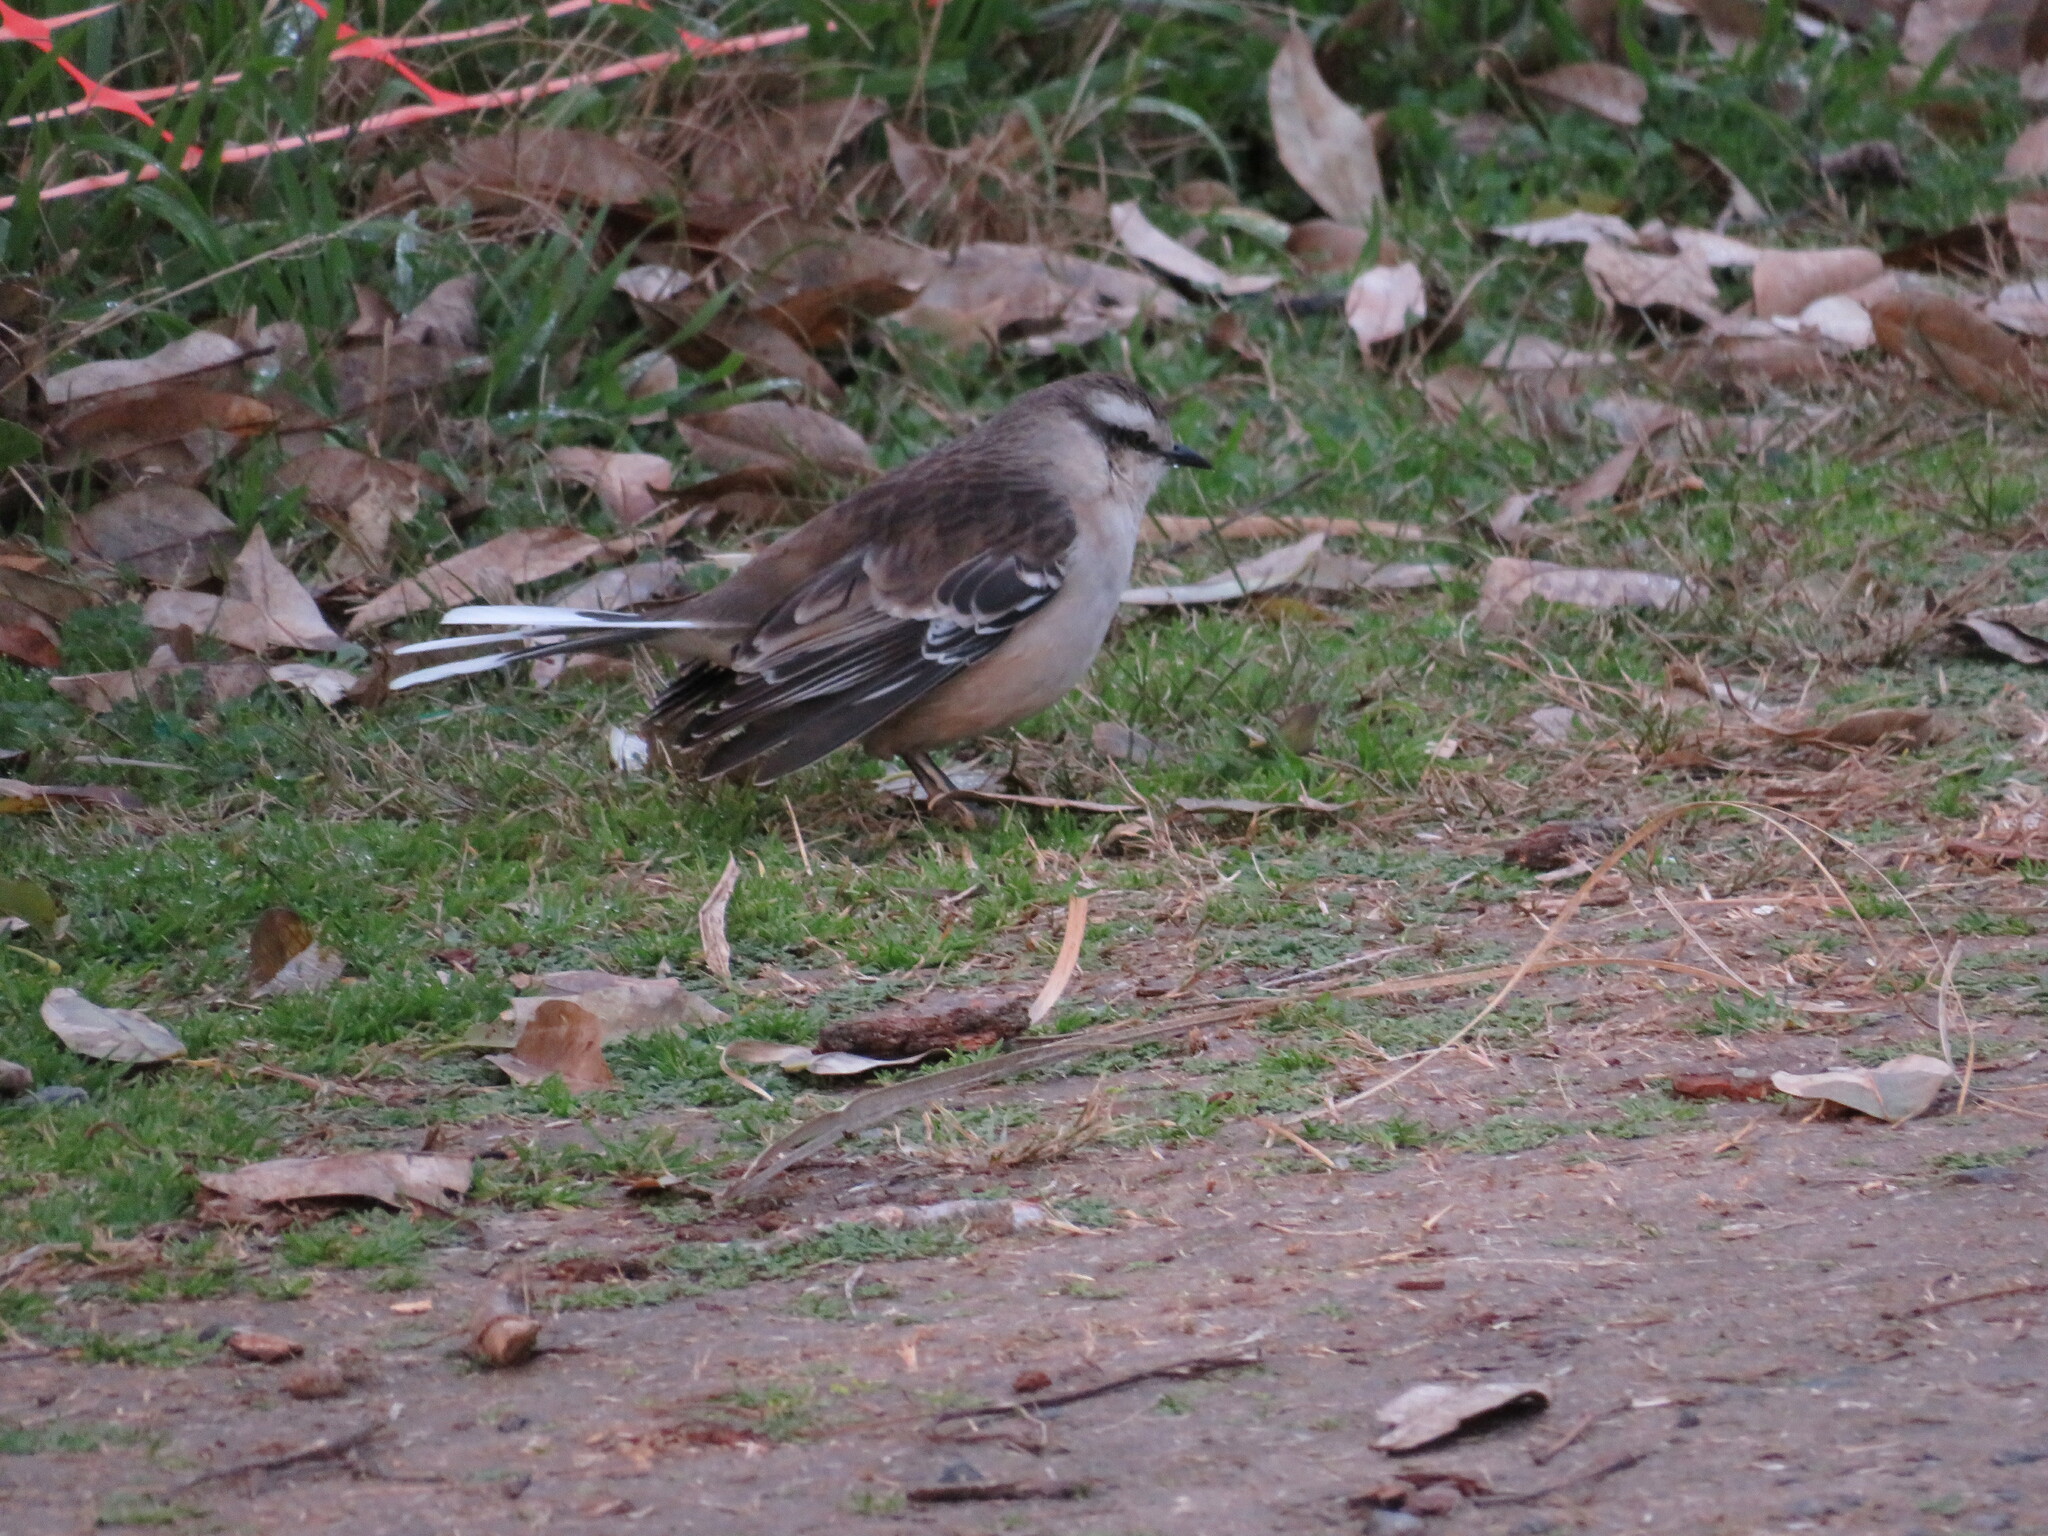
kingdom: Animalia
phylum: Chordata
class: Aves
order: Passeriformes
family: Mimidae
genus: Mimus
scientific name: Mimus saturninus
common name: Chalk-browed mockingbird
